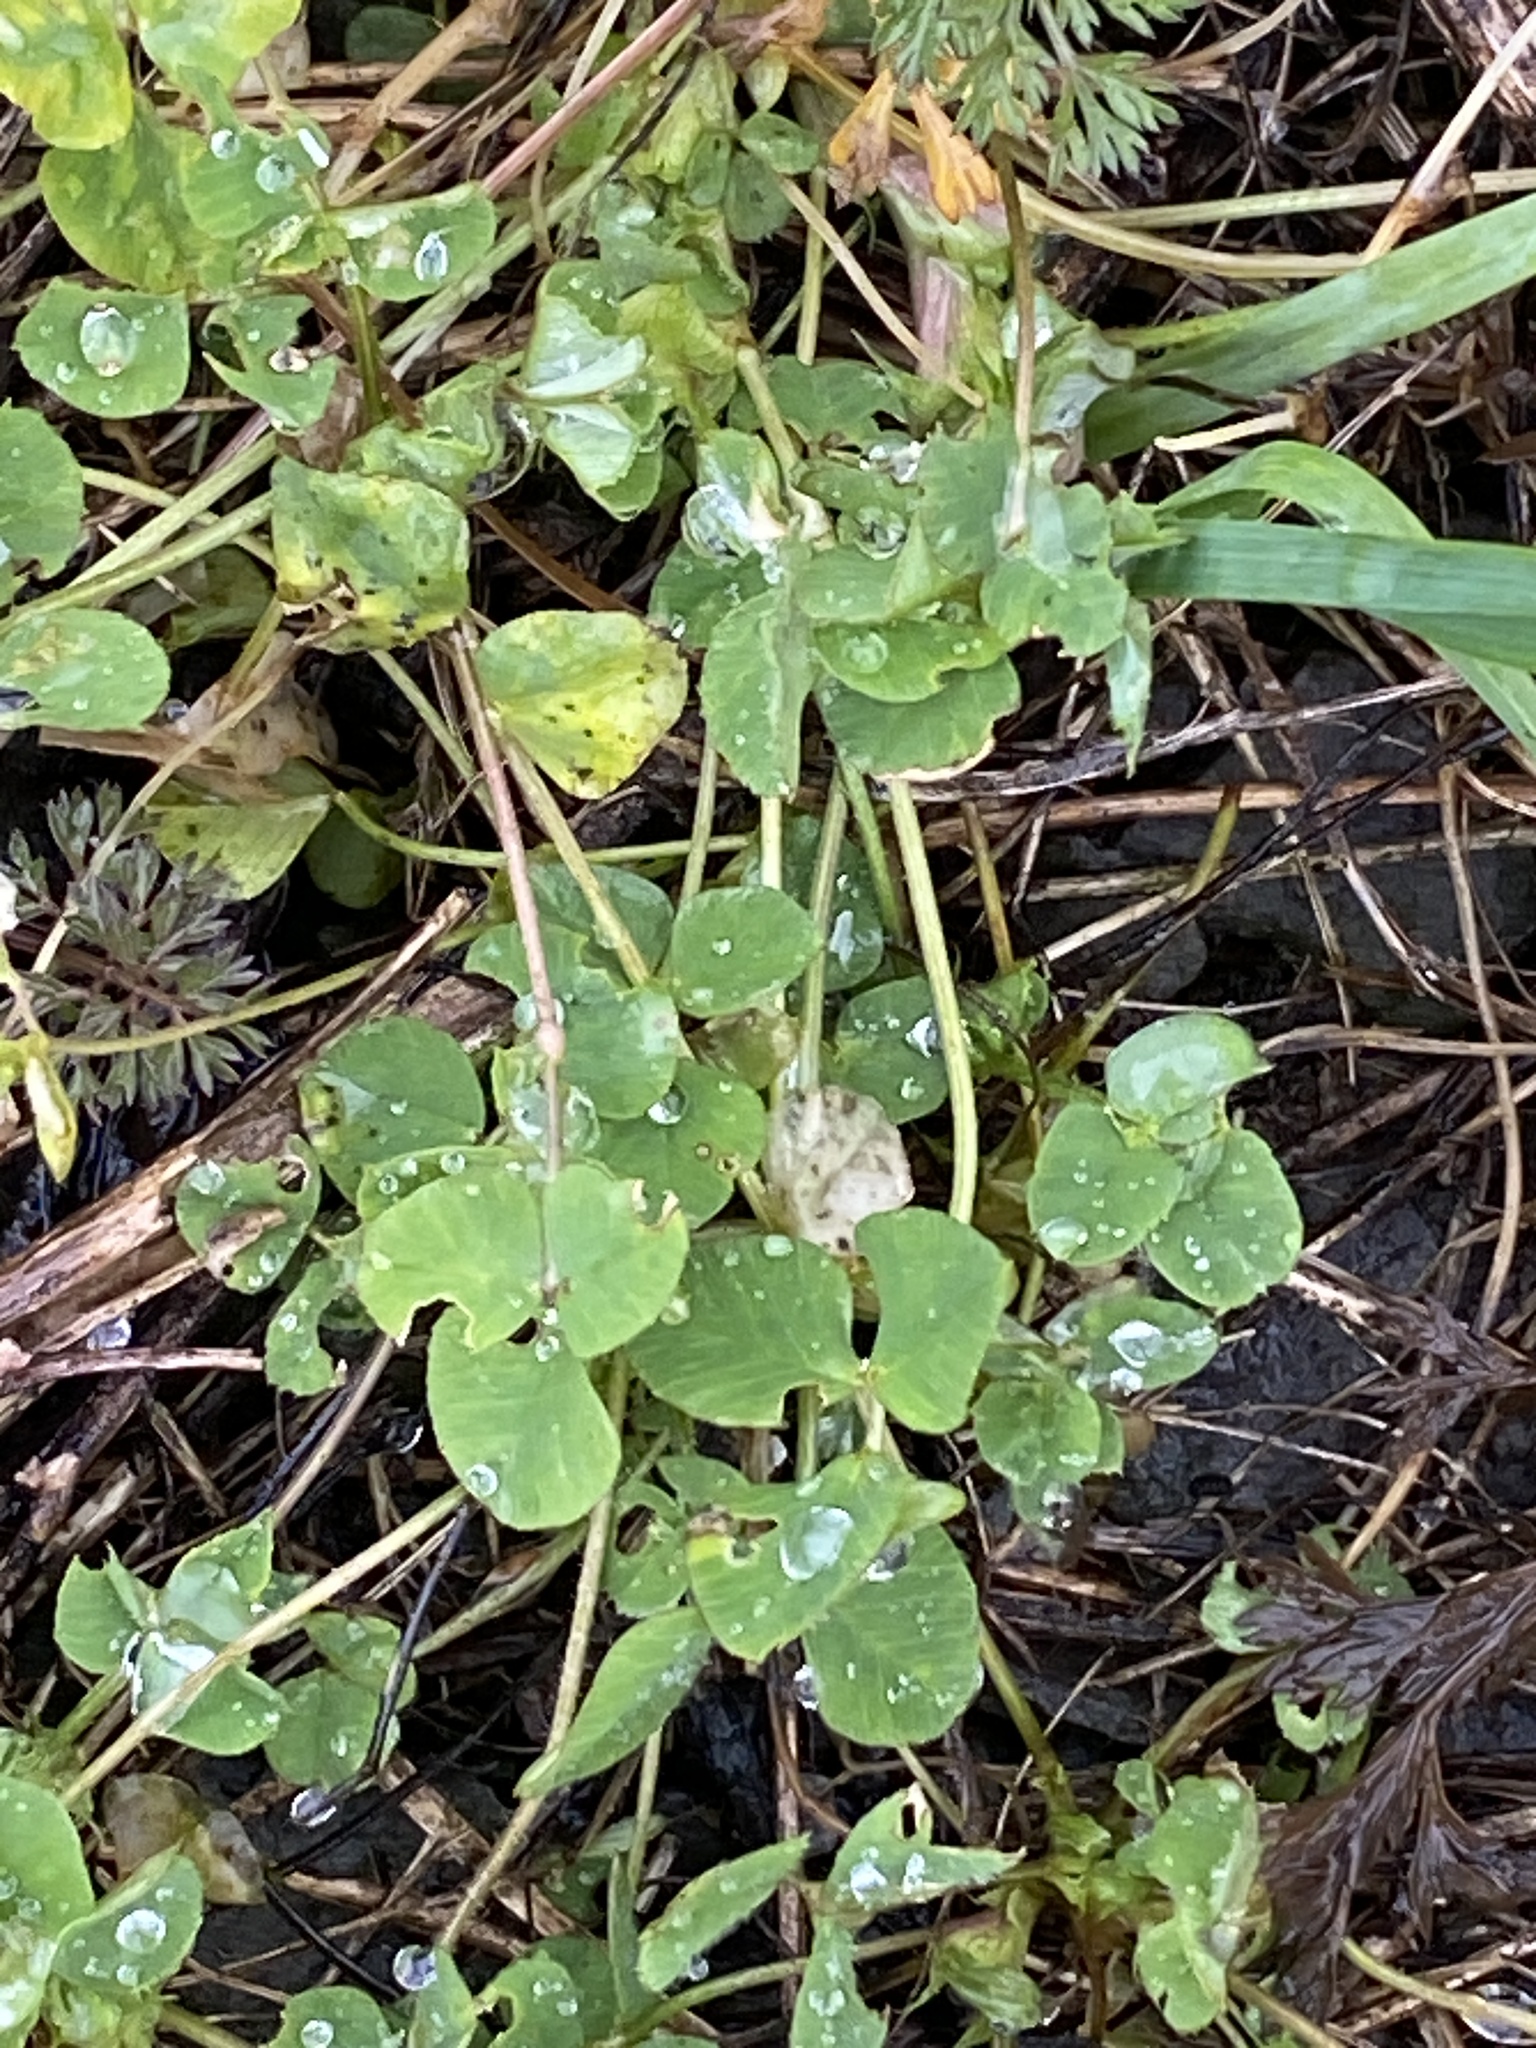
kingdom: Plantae
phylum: Tracheophyta
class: Magnoliopsida
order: Fabales
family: Fabaceae
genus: Medicago
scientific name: Medicago lupulina
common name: Black medick
